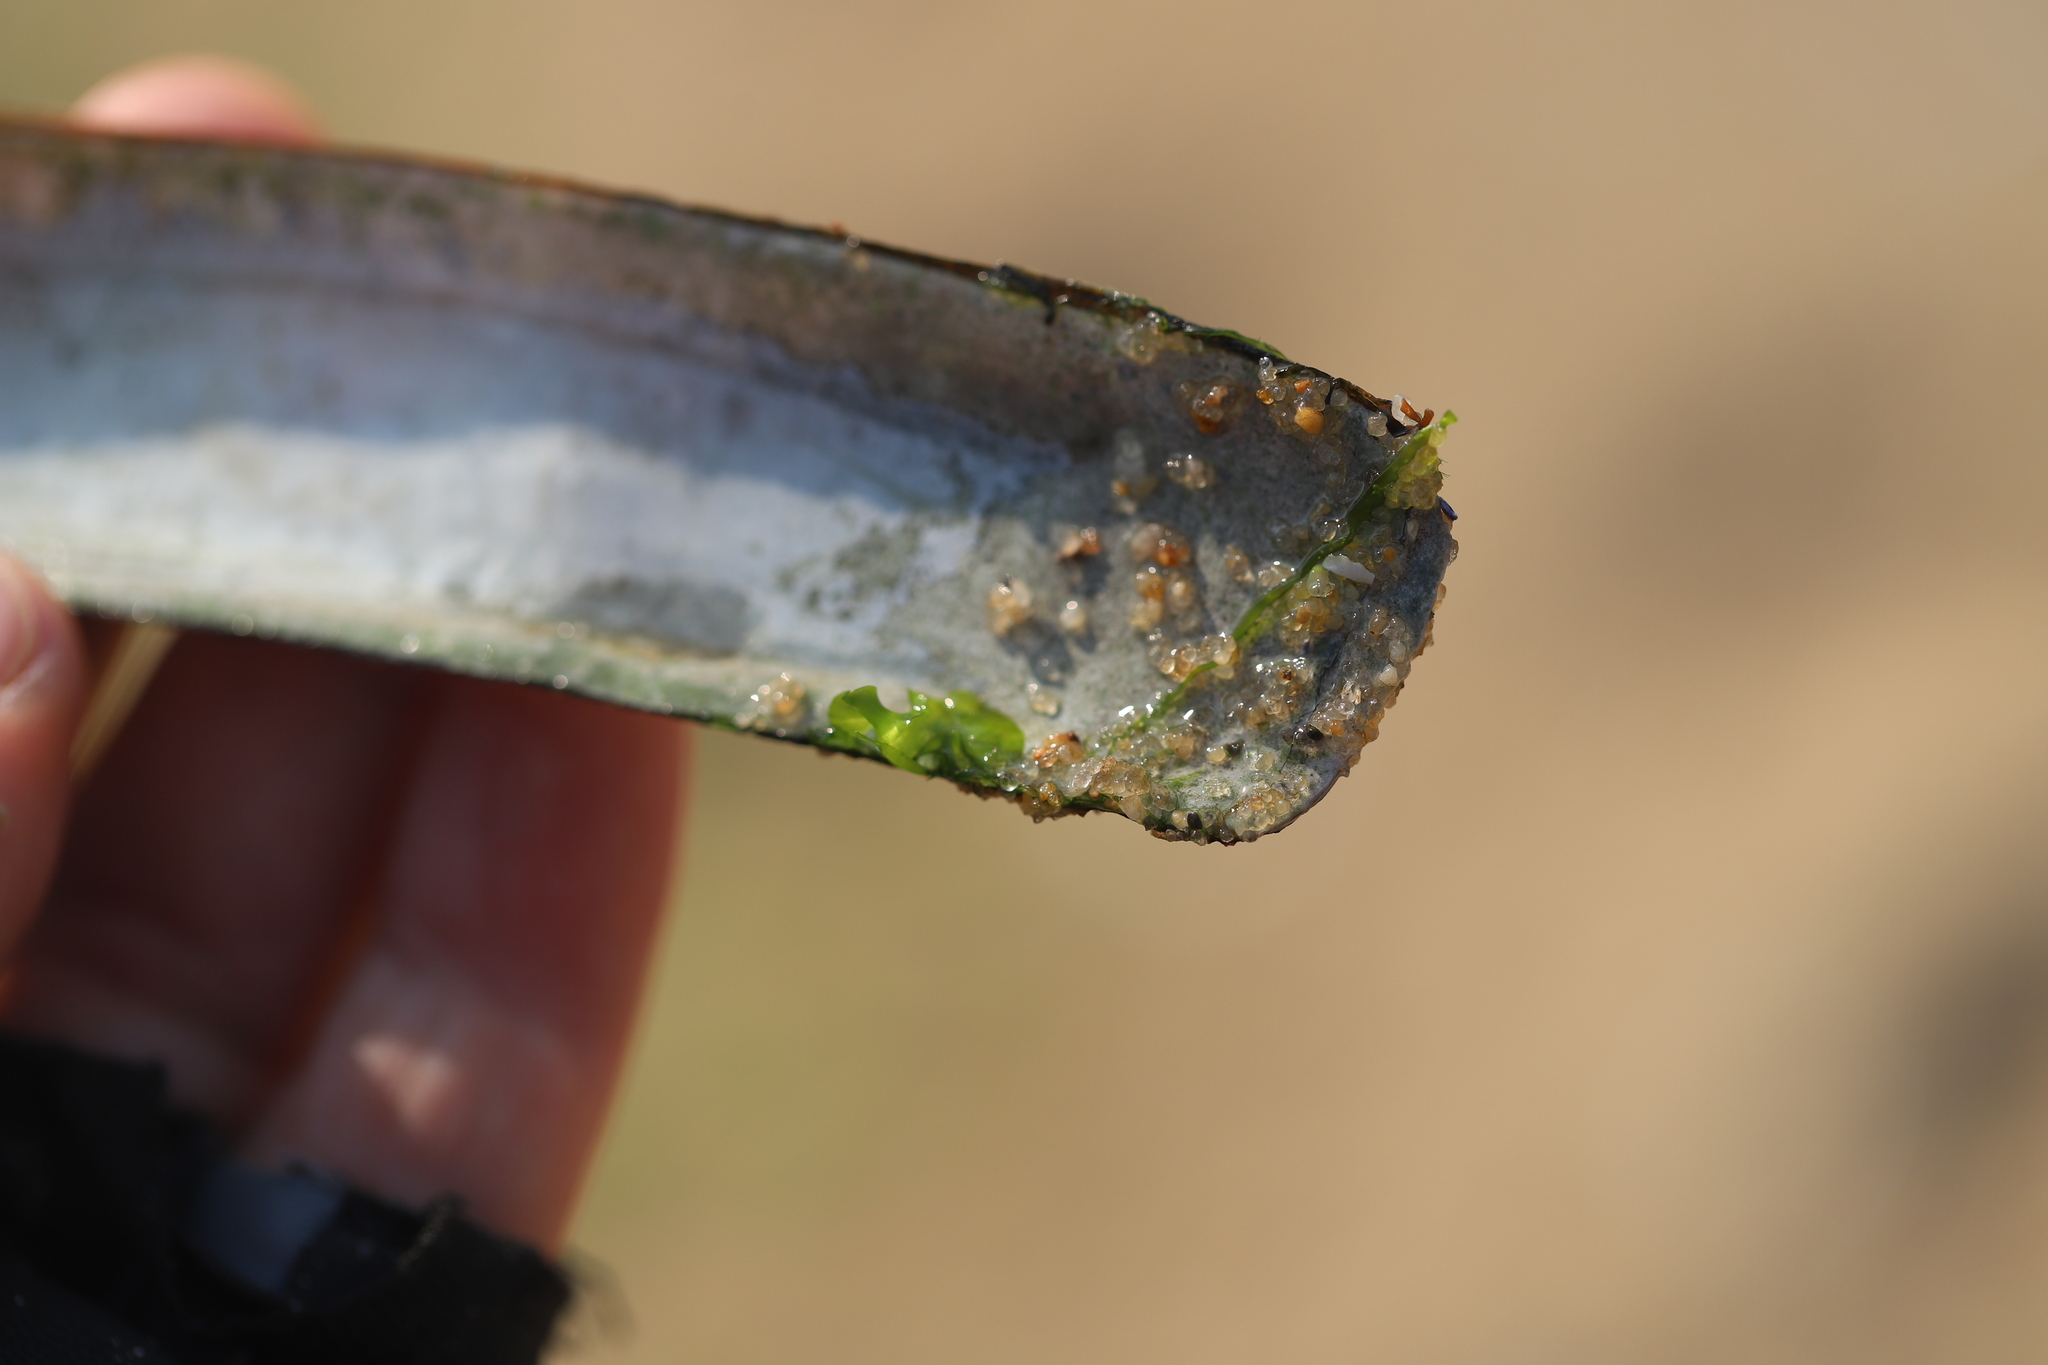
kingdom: Animalia
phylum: Mollusca
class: Bivalvia
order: Adapedonta
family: Pharidae
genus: Ensis
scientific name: Ensis leei
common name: American jack knife clam
